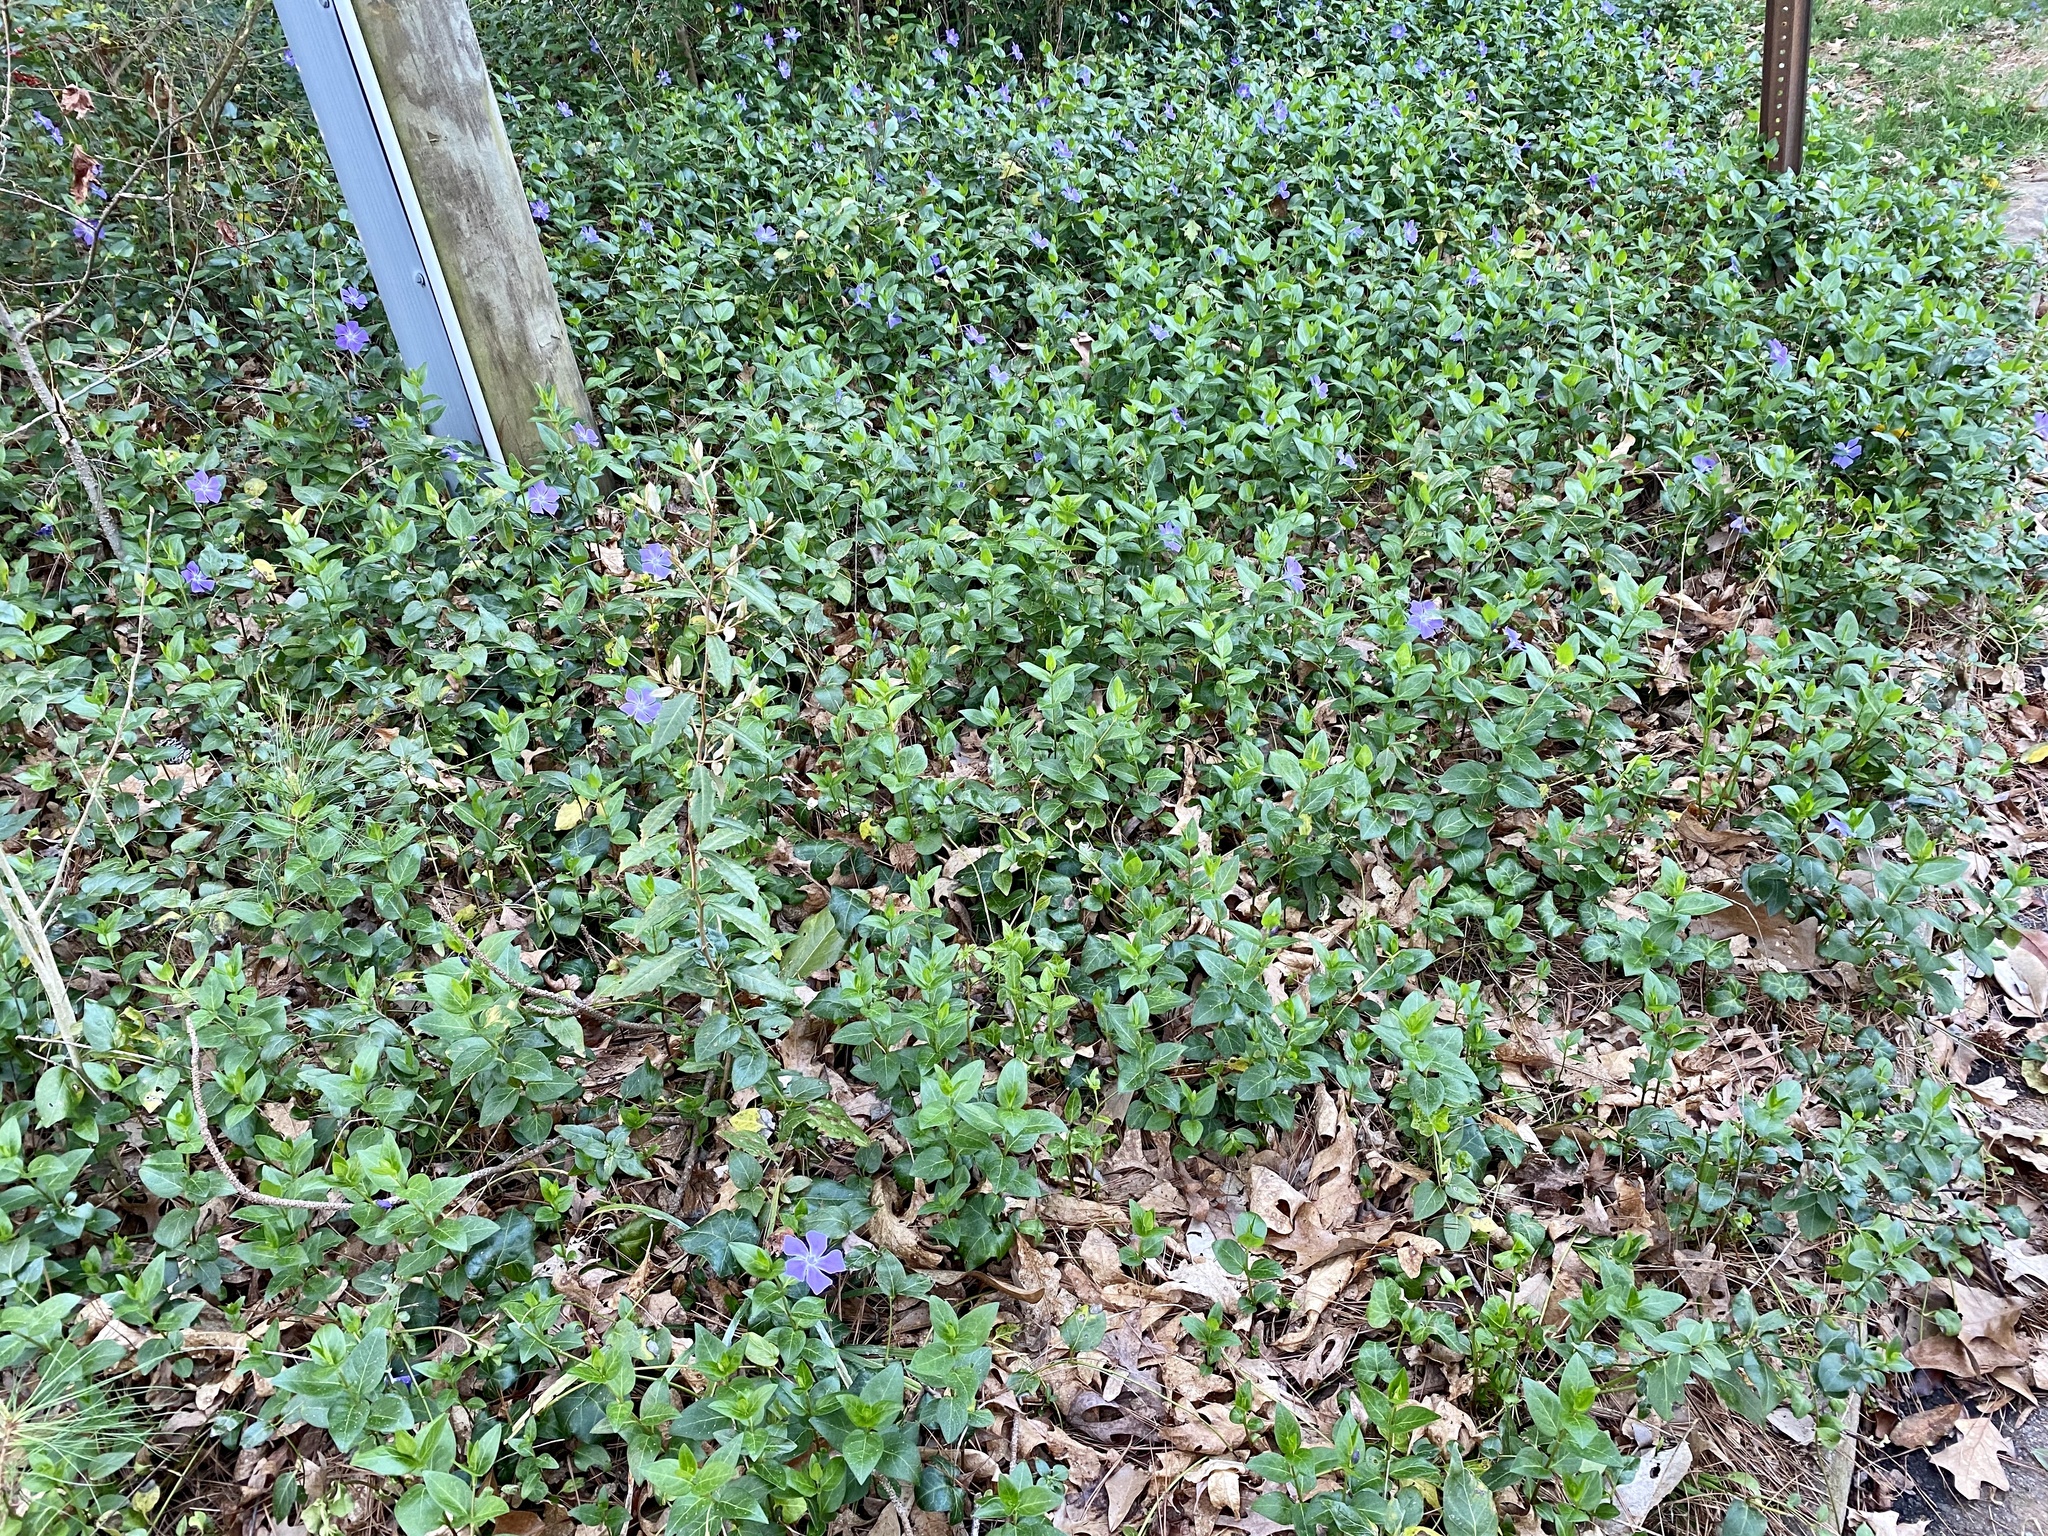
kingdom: Plantae
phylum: Tracheophyta
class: Magnoliopsida
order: Gentianales
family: Apocynaceae
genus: Vinca
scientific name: Vinca major
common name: Greater periwinkle
